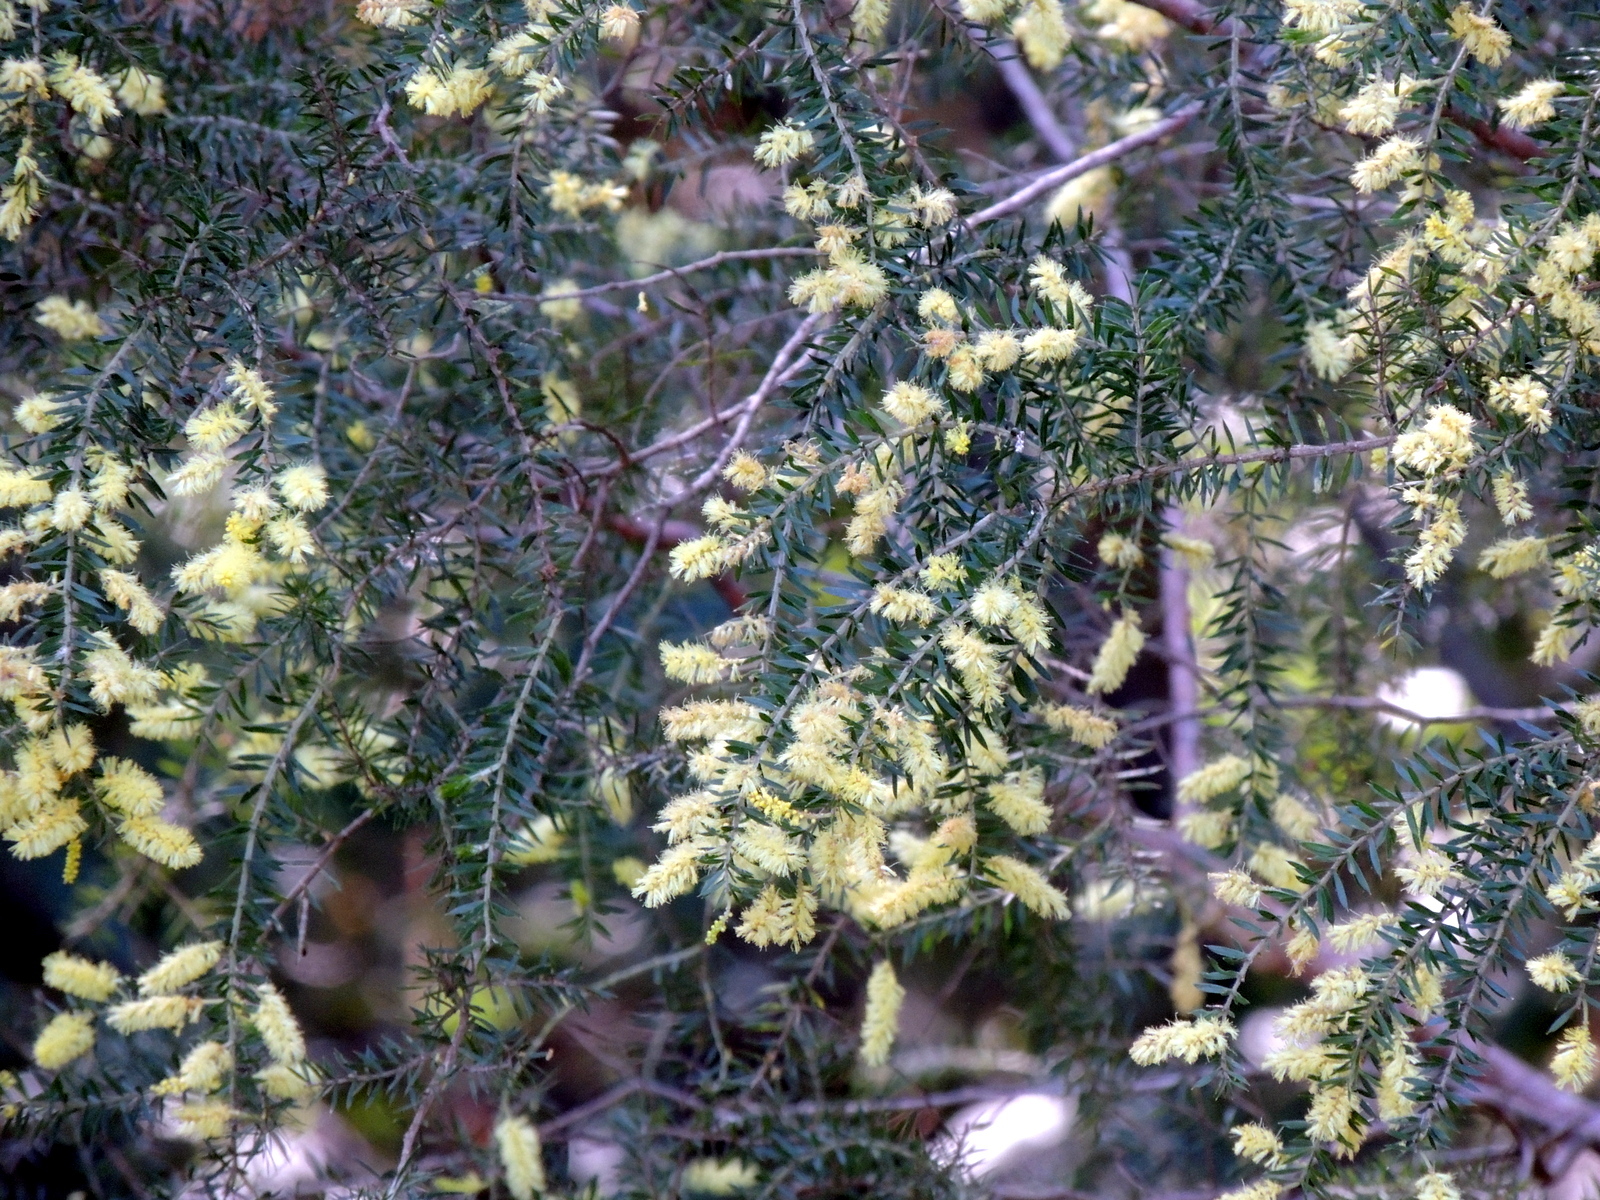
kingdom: Plantae
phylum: Tracheophyta
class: Magnoliopsida
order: Fabales
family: Fabaceae
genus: Acacia
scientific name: Acacia verticillata
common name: Prickly moses
